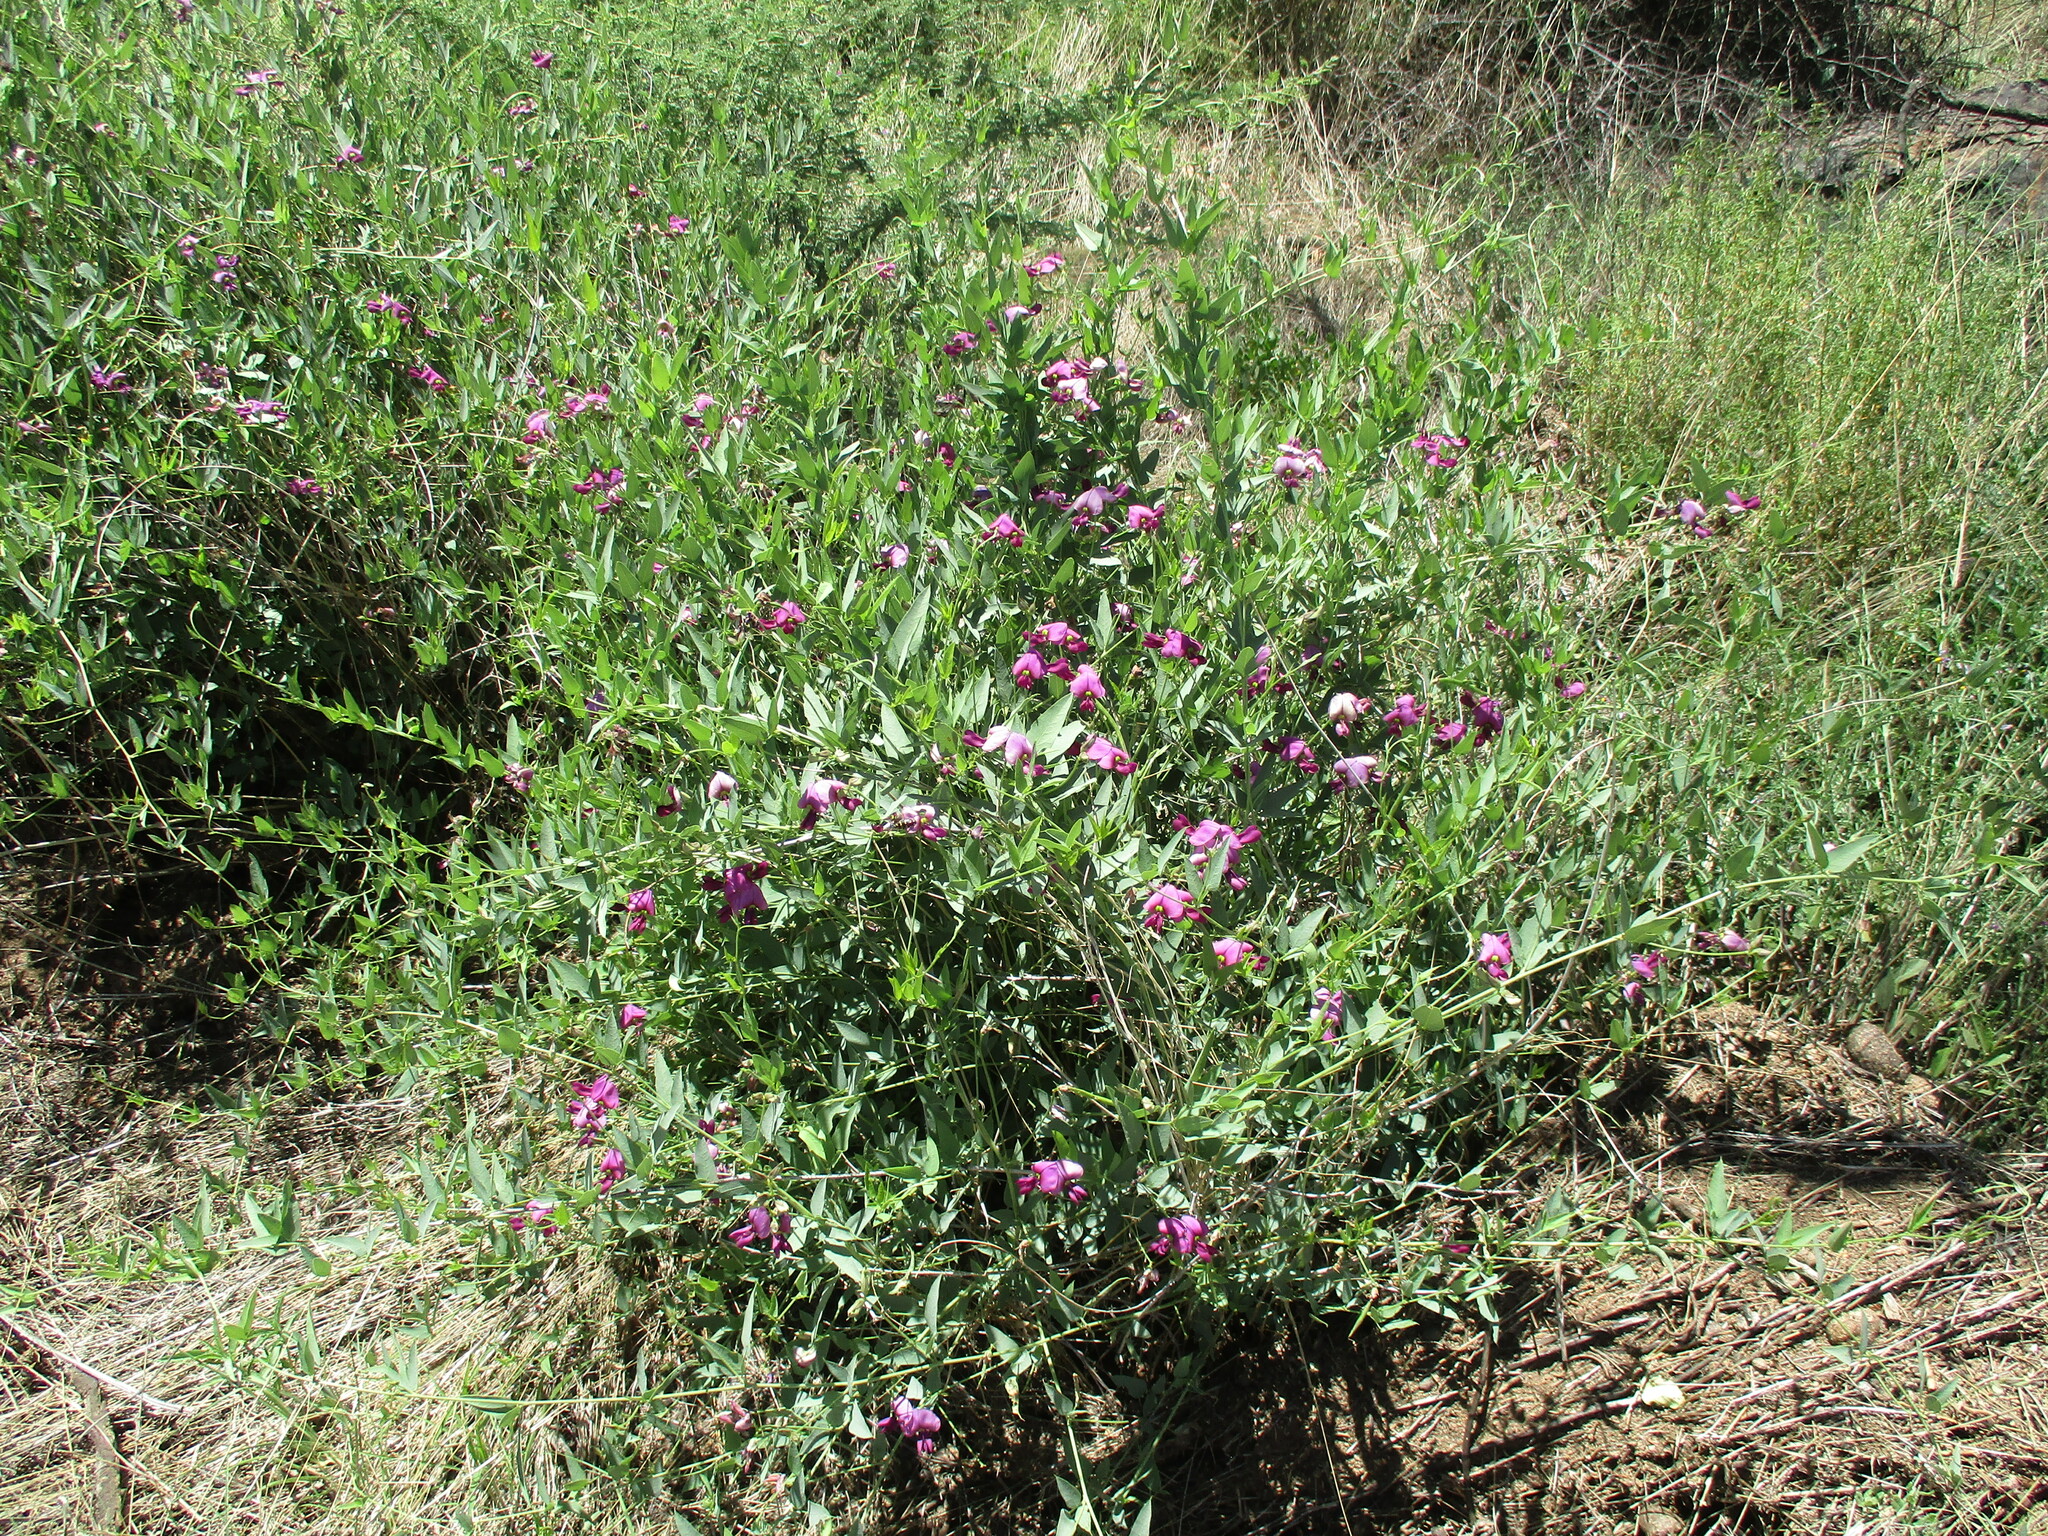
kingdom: Plantae
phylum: Tracheophyta
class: Magnoliopsida
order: Fabales
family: Fabaceae
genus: Otoptera
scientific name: Otoptera burchellii
